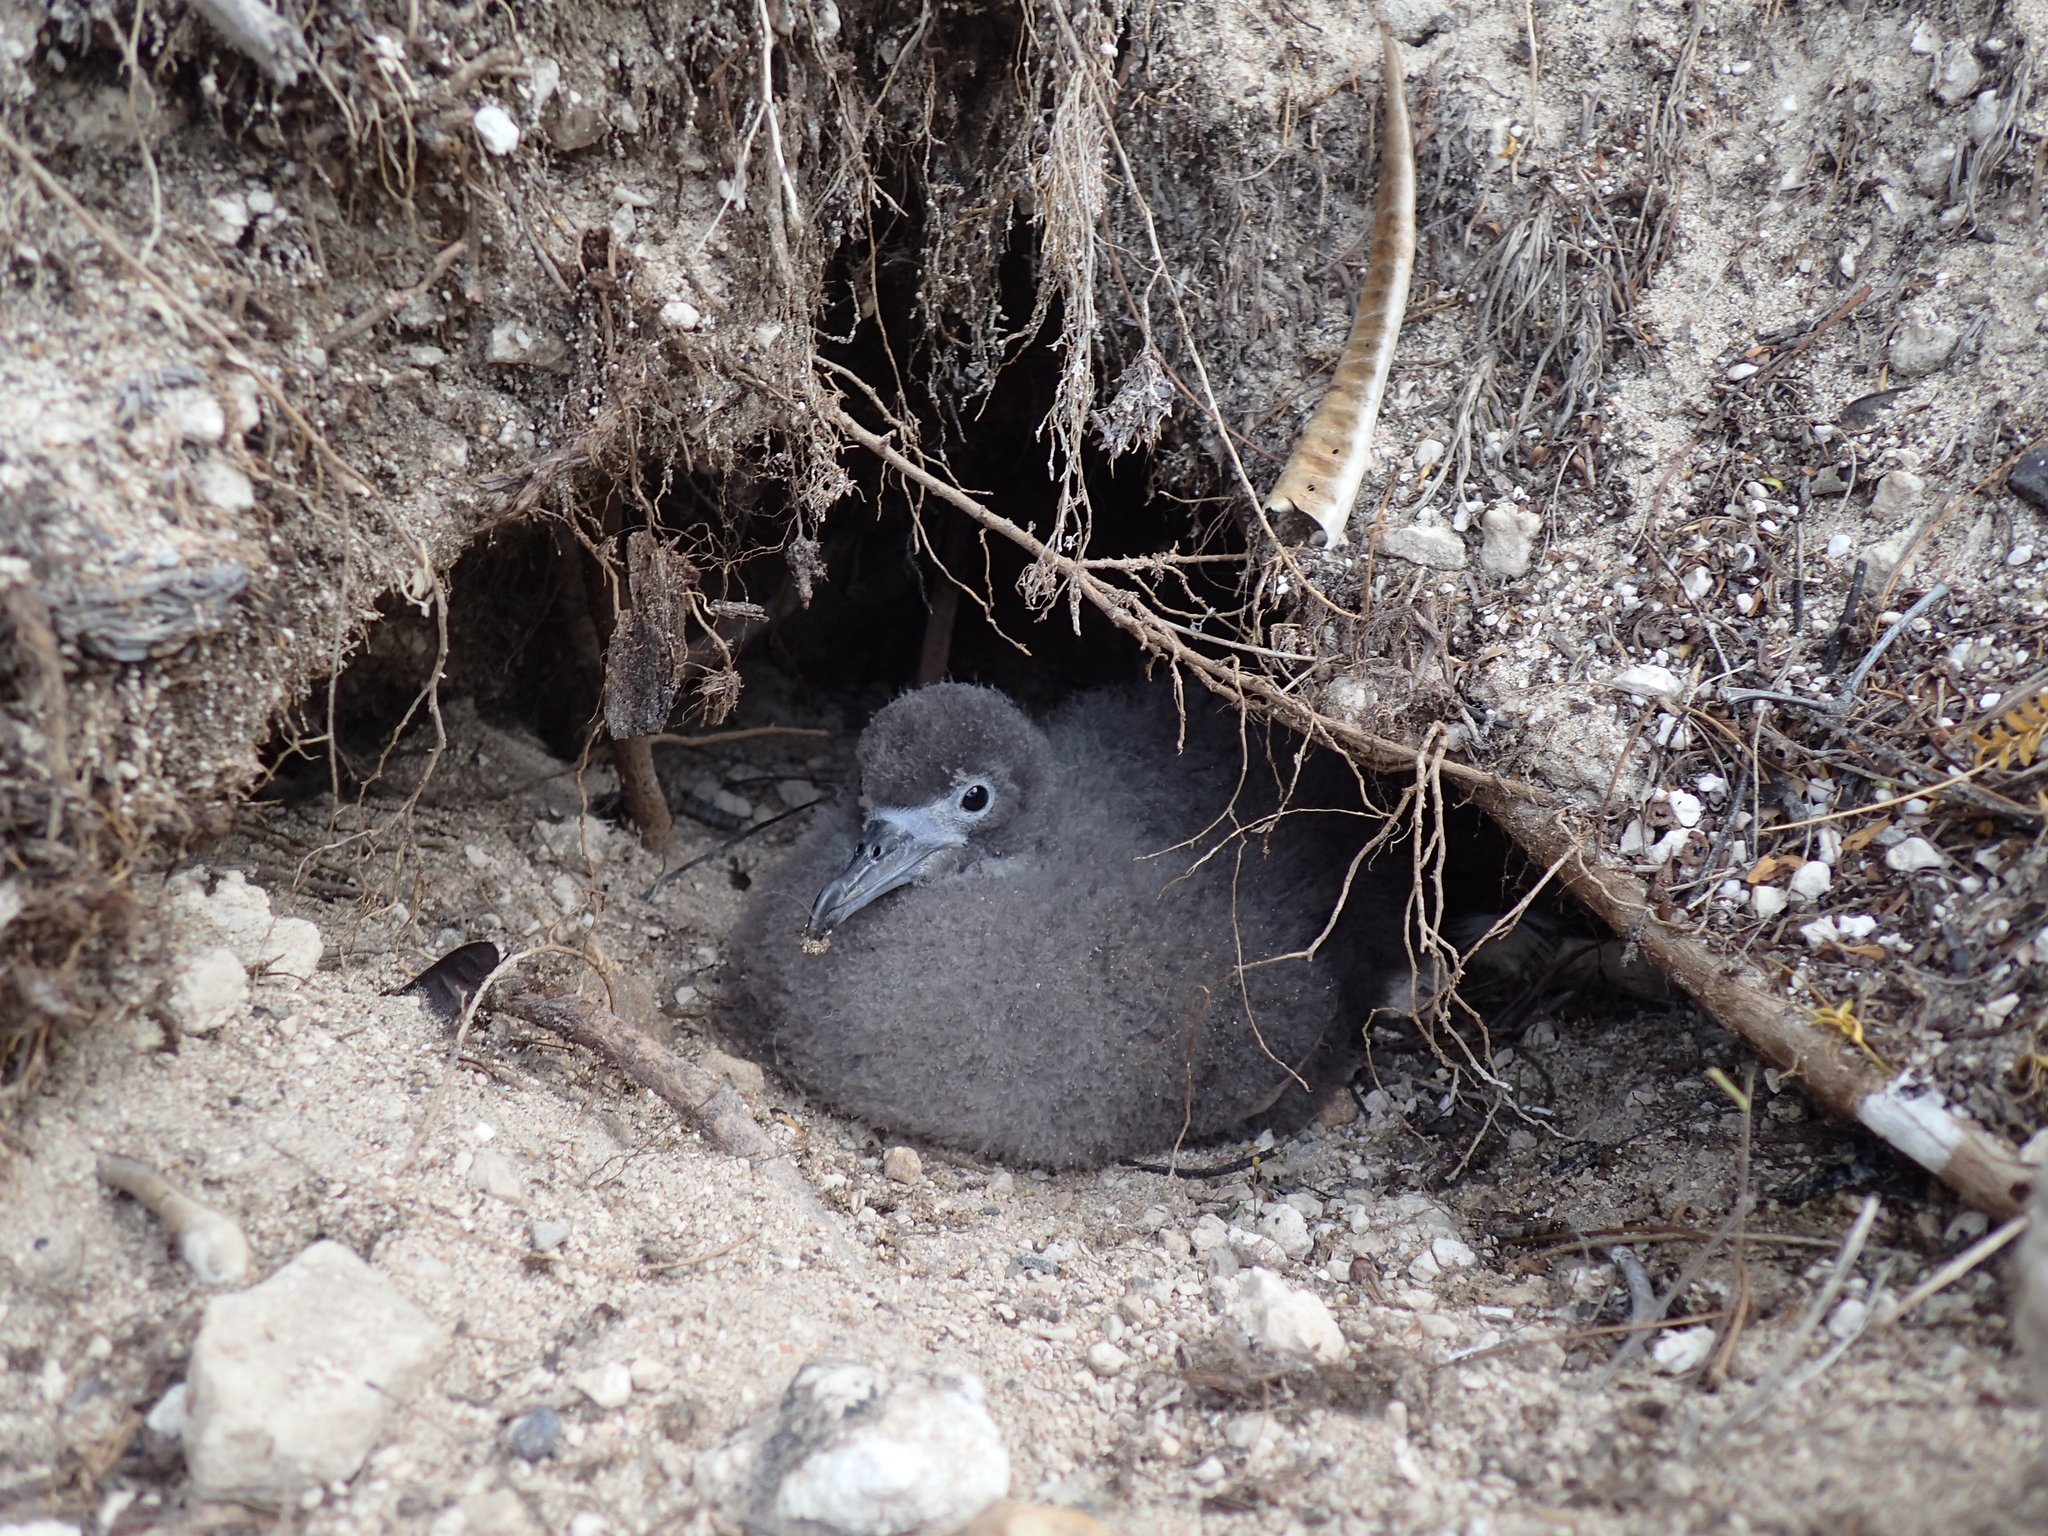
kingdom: Animalia
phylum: Chordata
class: Aves
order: Procellariiformes
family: Procellariidae
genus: Puffinus
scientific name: Puffinus pacificus
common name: Wedge-tailed shearwater
